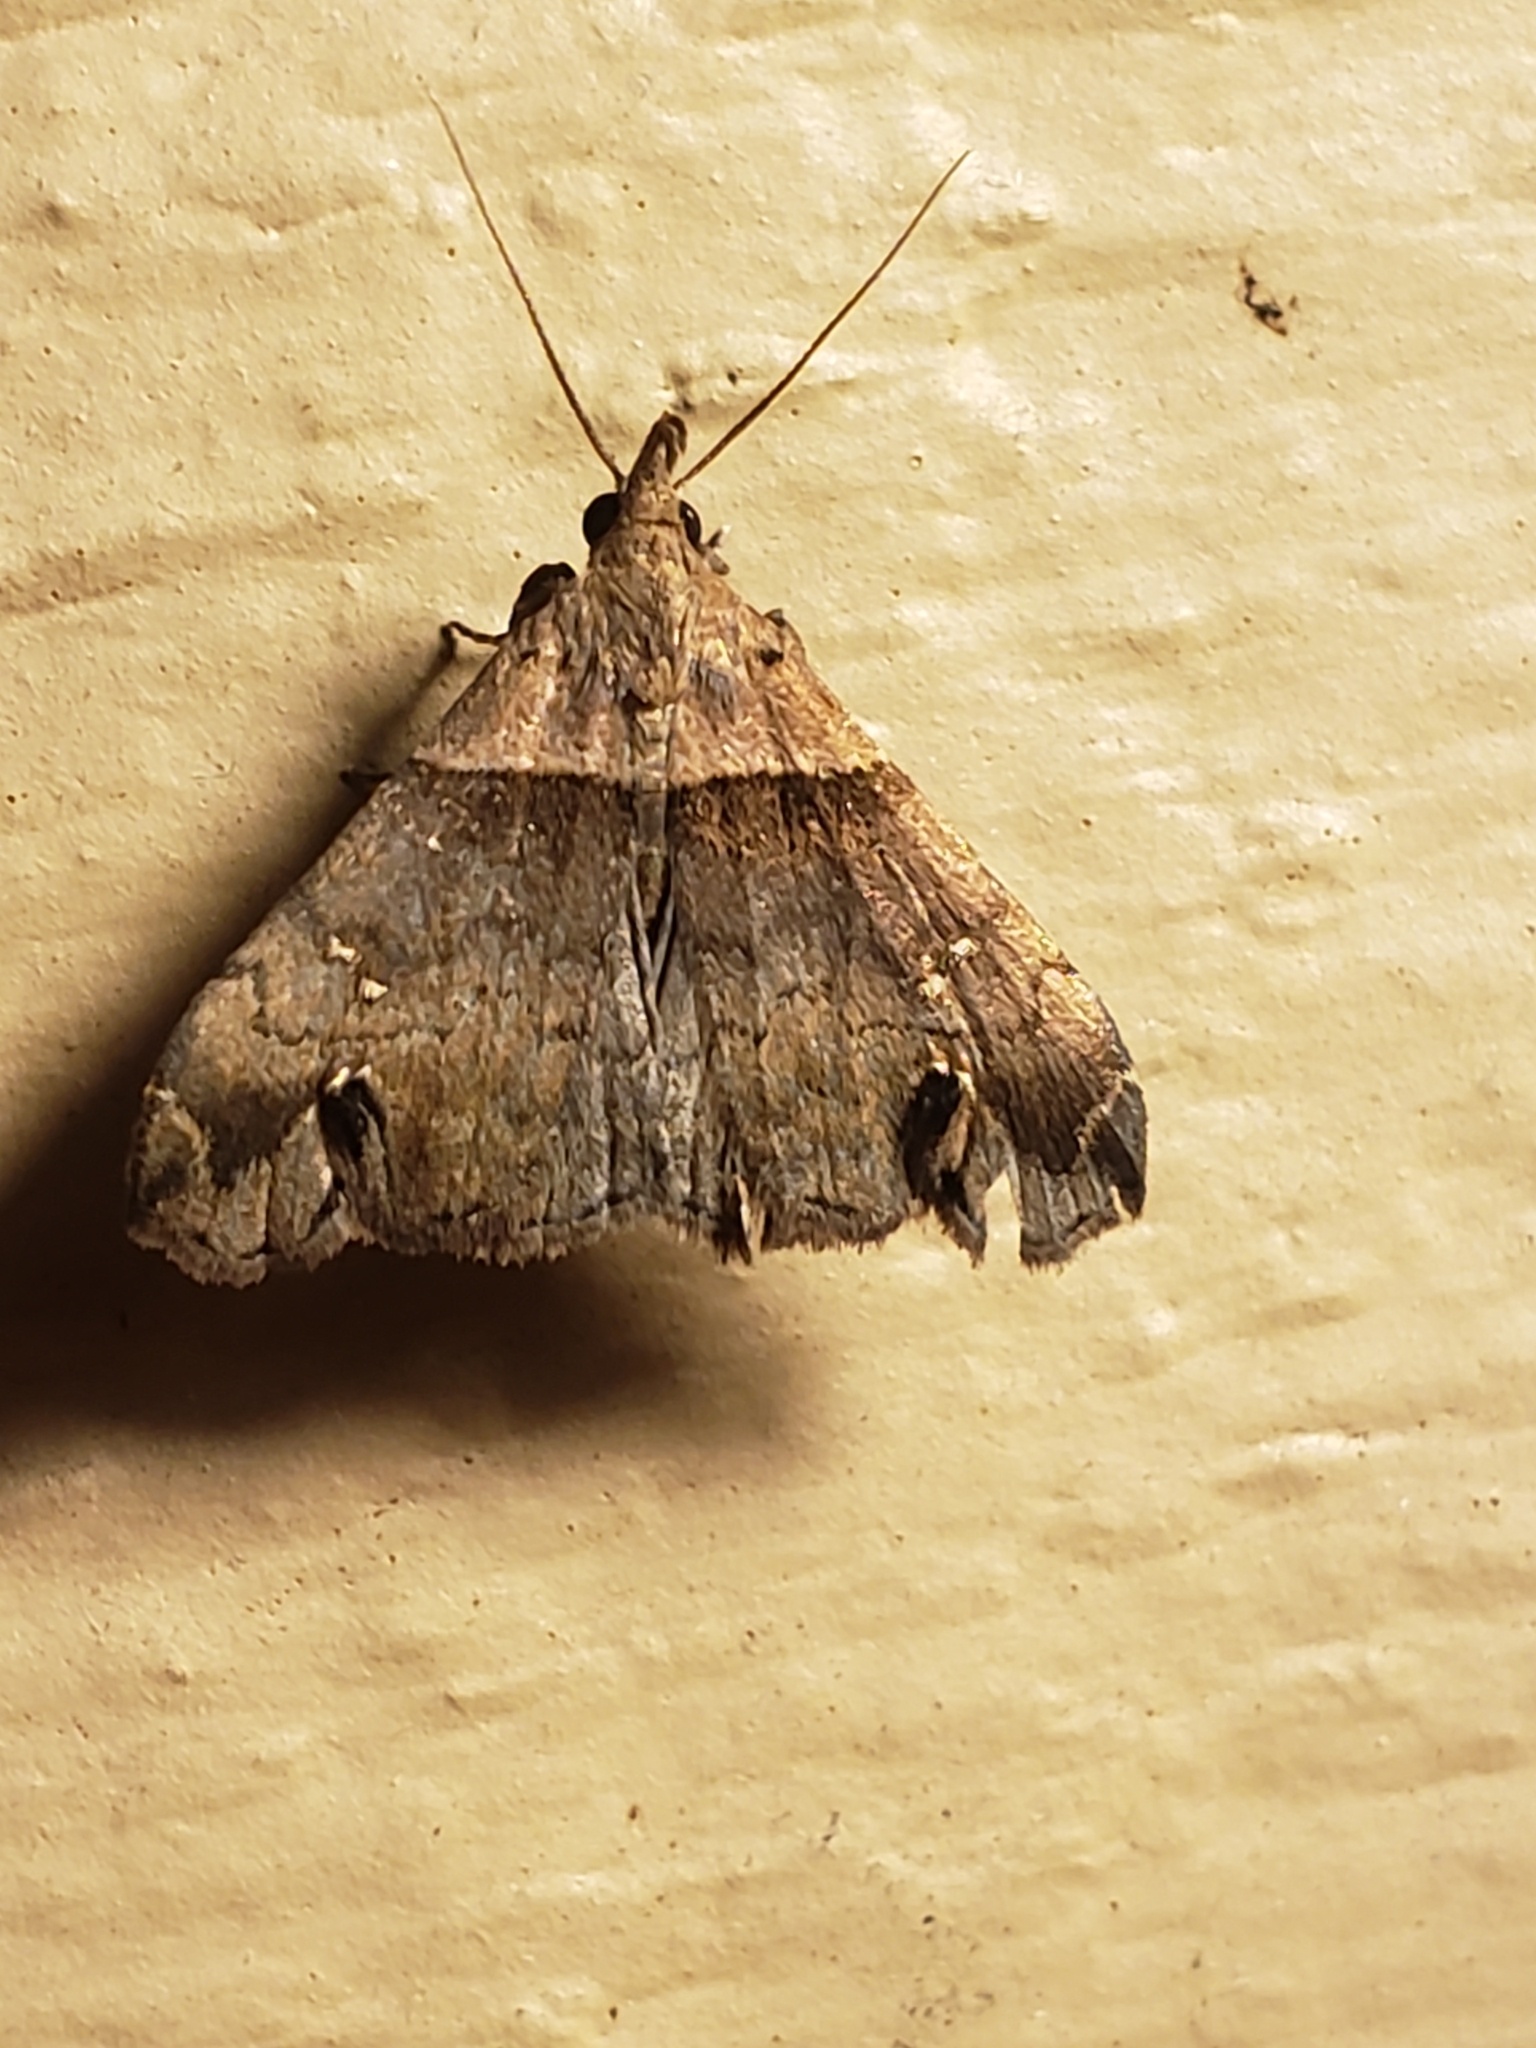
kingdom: Animalia
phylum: Arthropoda
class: Insecta
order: Lepidoptera
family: Erebidae
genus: Lascoria
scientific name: Lascoria ambigualis
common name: Ambiguous moth
